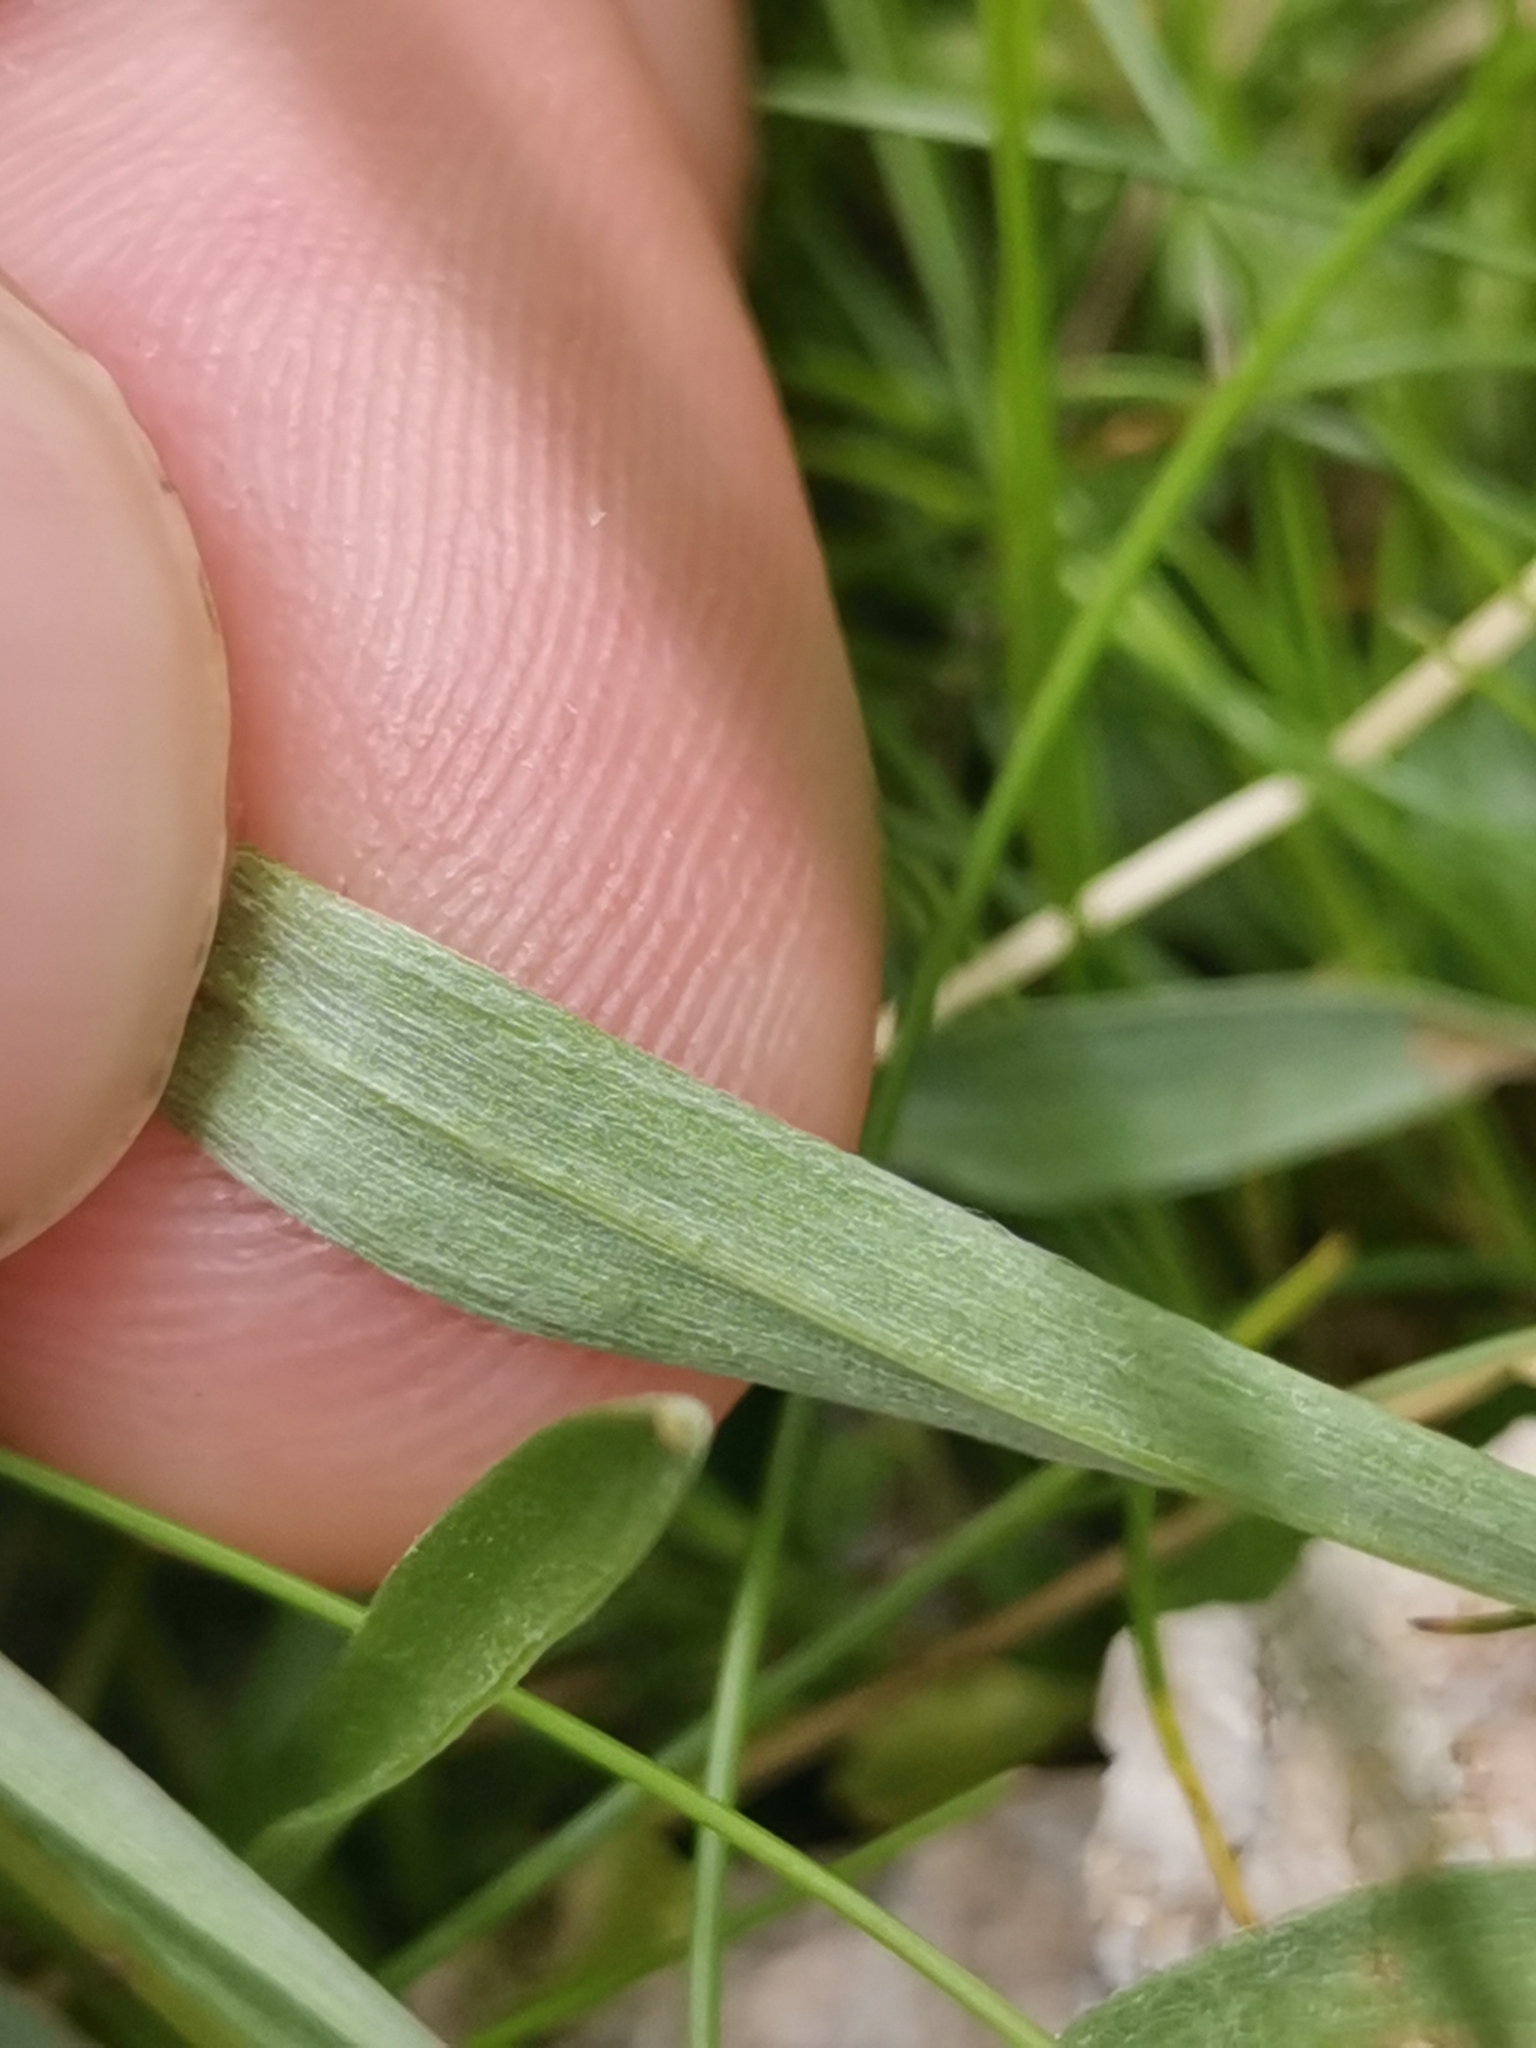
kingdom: Plantae
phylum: Tracheophyta
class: Magnoliopsida
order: Asterales
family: Asteraceae
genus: Omalotheca
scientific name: Omalotheca hoppeana
